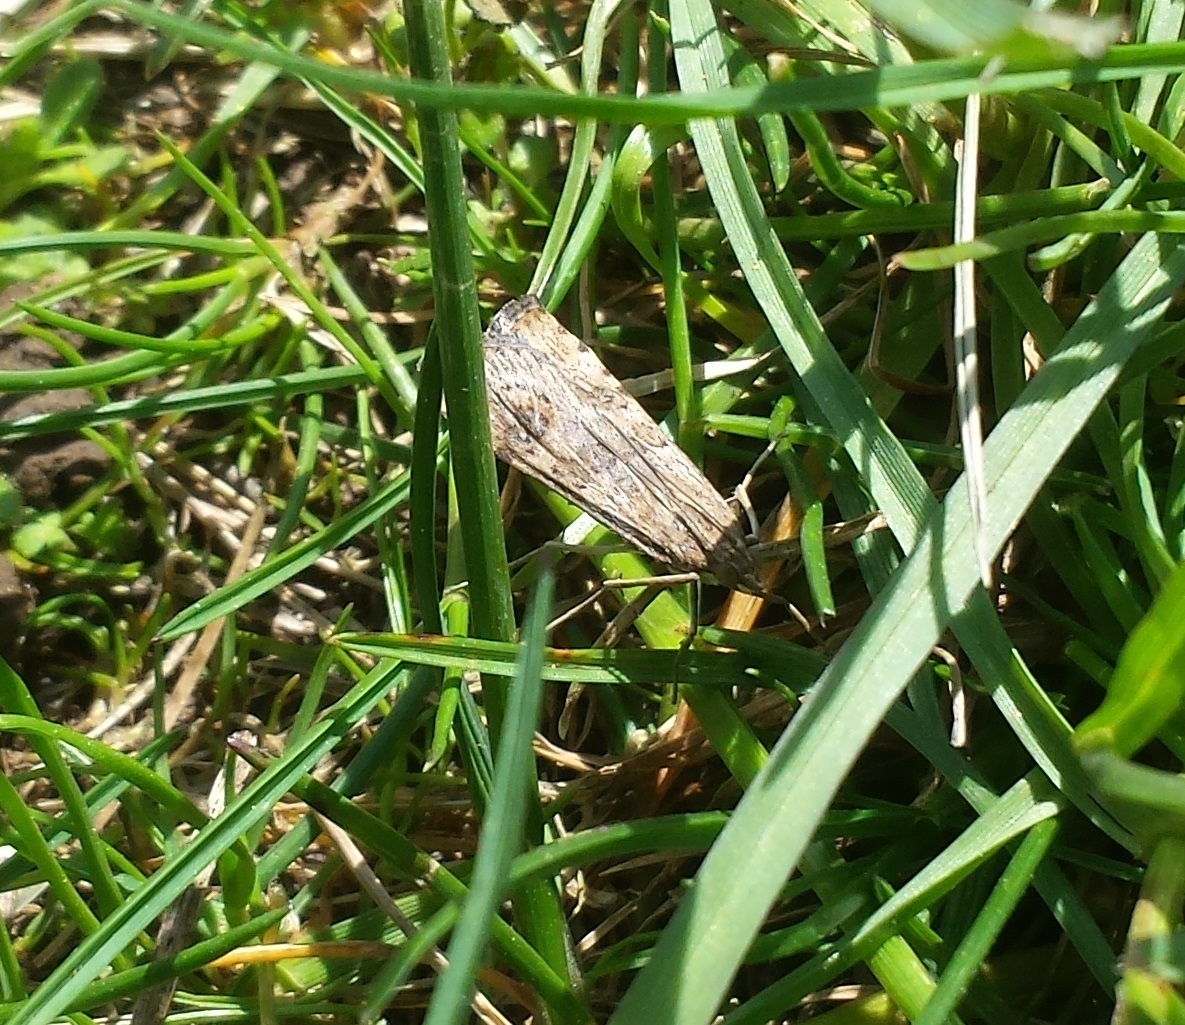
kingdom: Animalia
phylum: Arthropoda
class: Insecta
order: Lepidoptera
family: Crambidae
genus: Nomophila
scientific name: Nomophila nearctica
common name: American rush veneer
